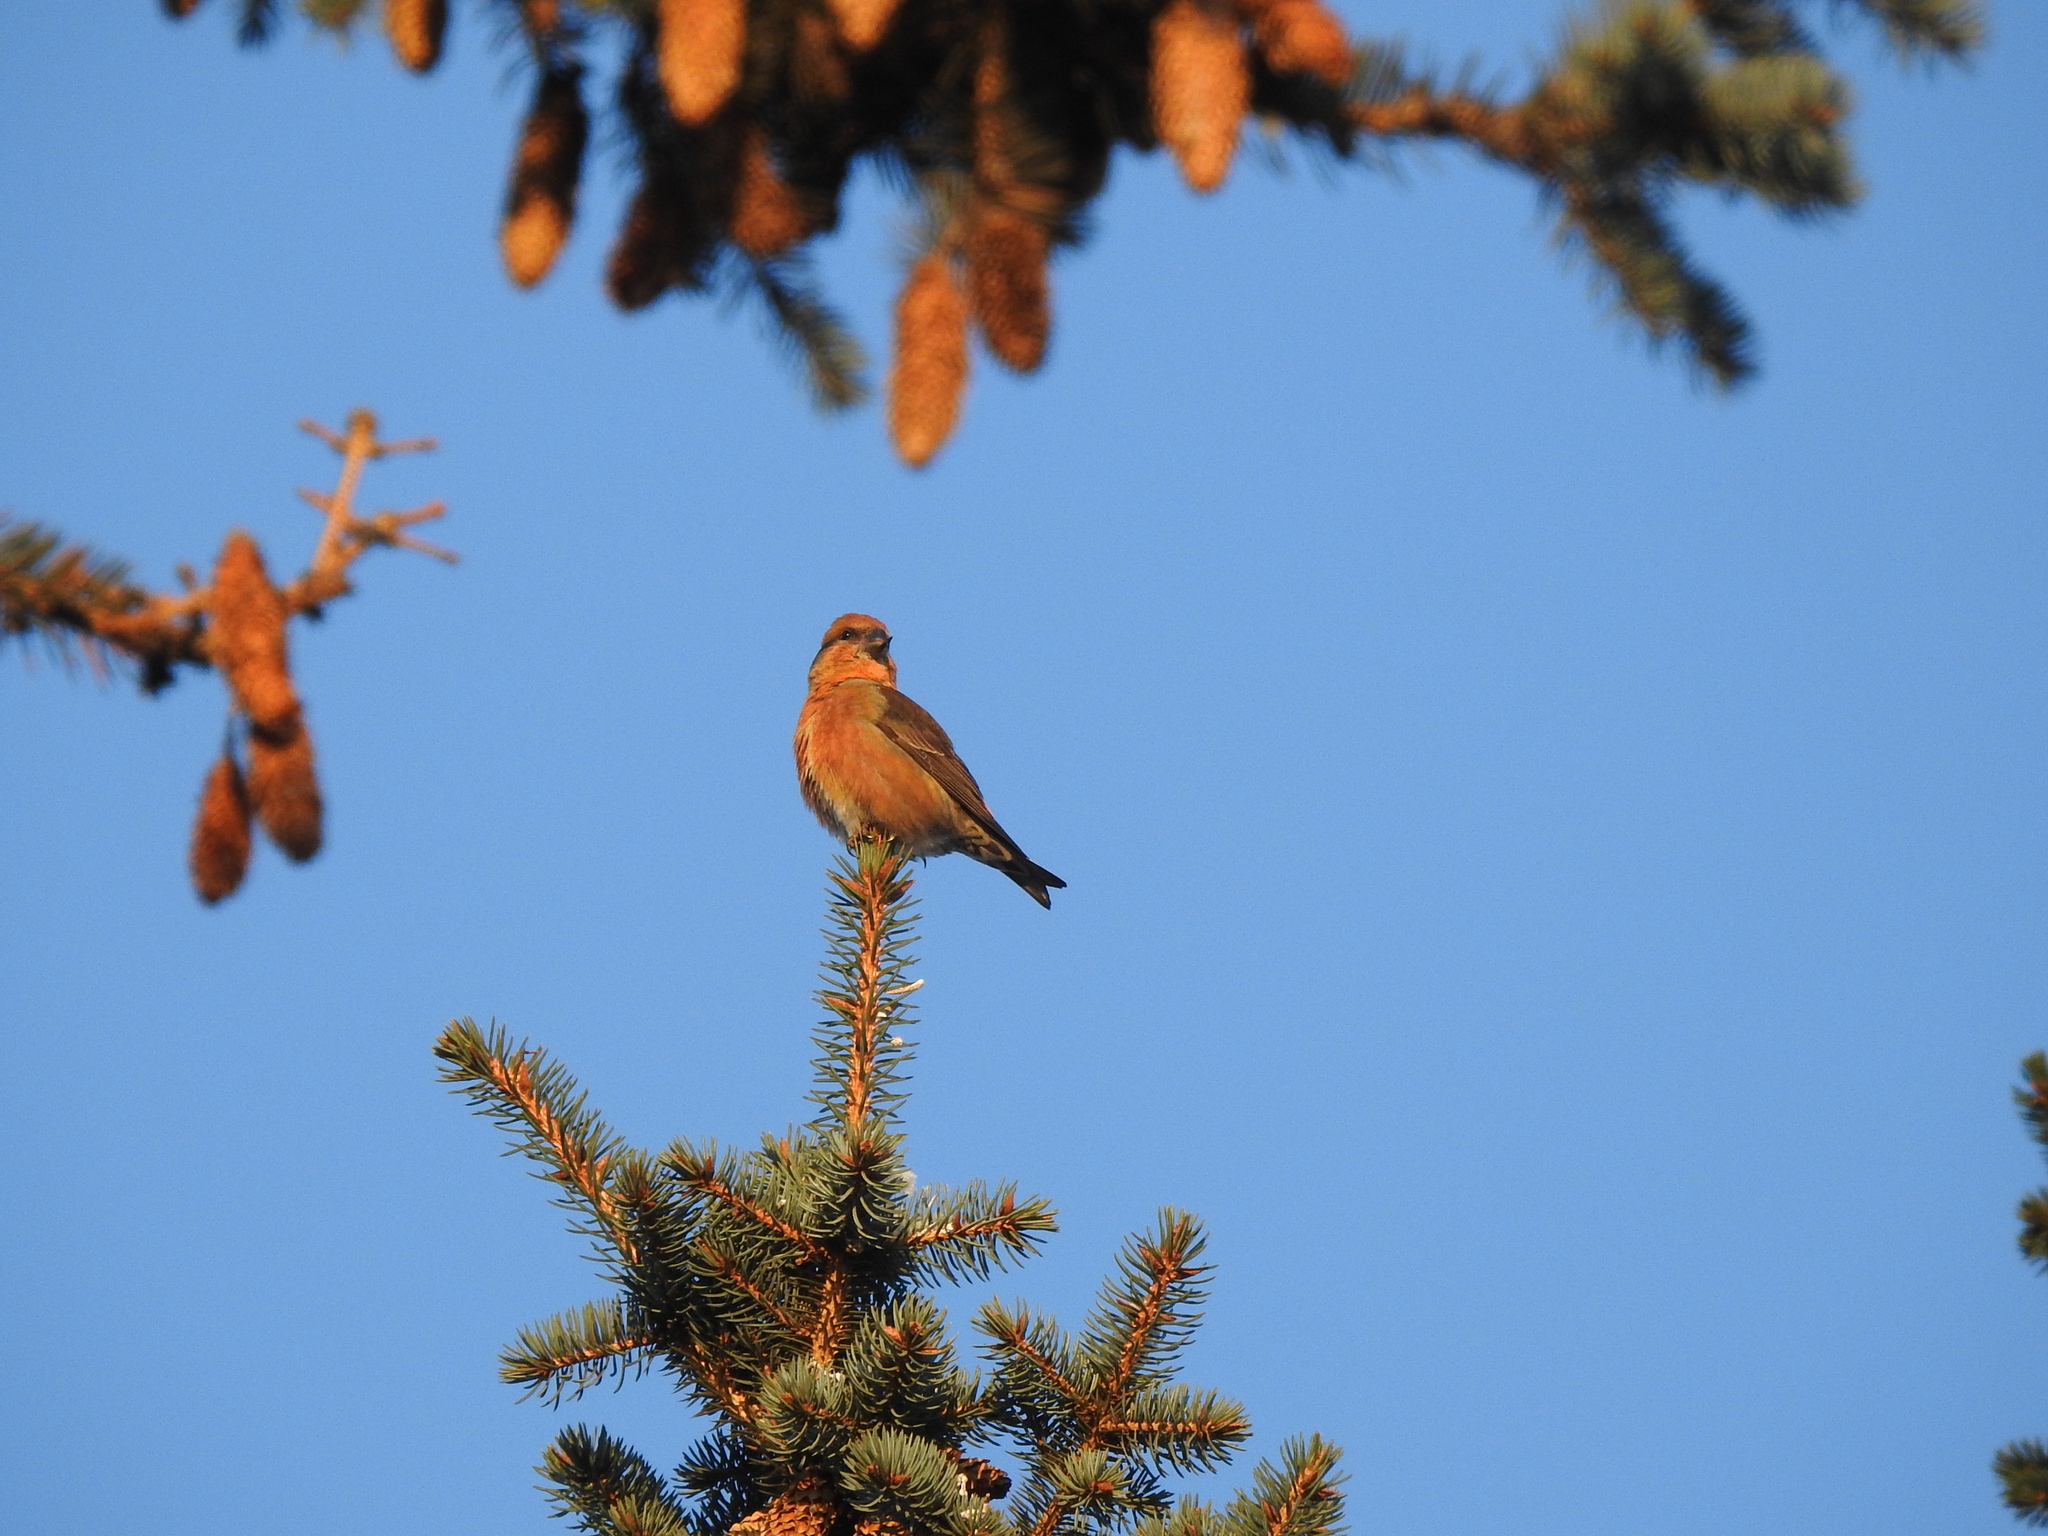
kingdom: Animalia
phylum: Chordata
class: Aves
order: Passeriformes
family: Fringillidae
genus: Loxia
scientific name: Loxia curvirostra
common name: Red crossbill
